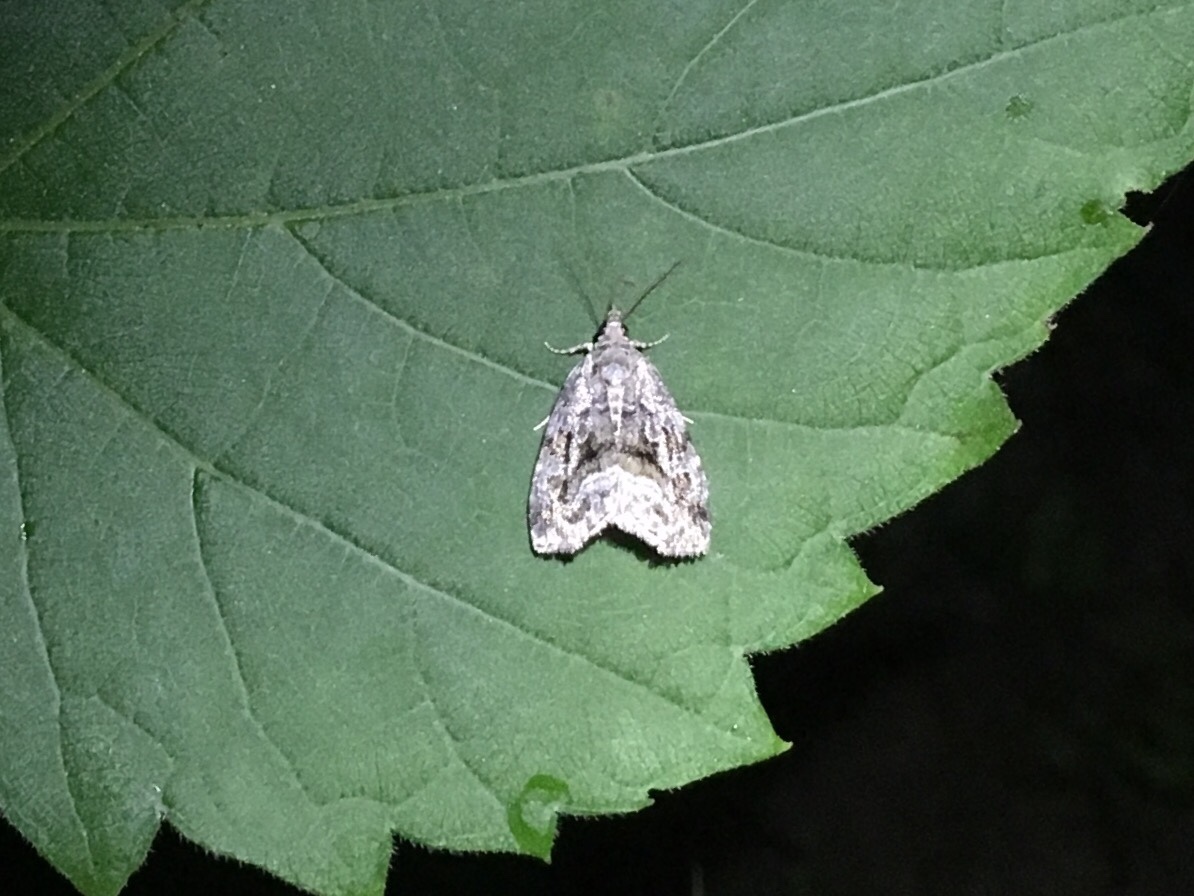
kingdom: Animalia
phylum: Arthropoda
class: Insecta
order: Lepidoptera
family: Noctuidae
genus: Protodeltote
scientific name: Protodeltote muscosula
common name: Large mossy glyph
